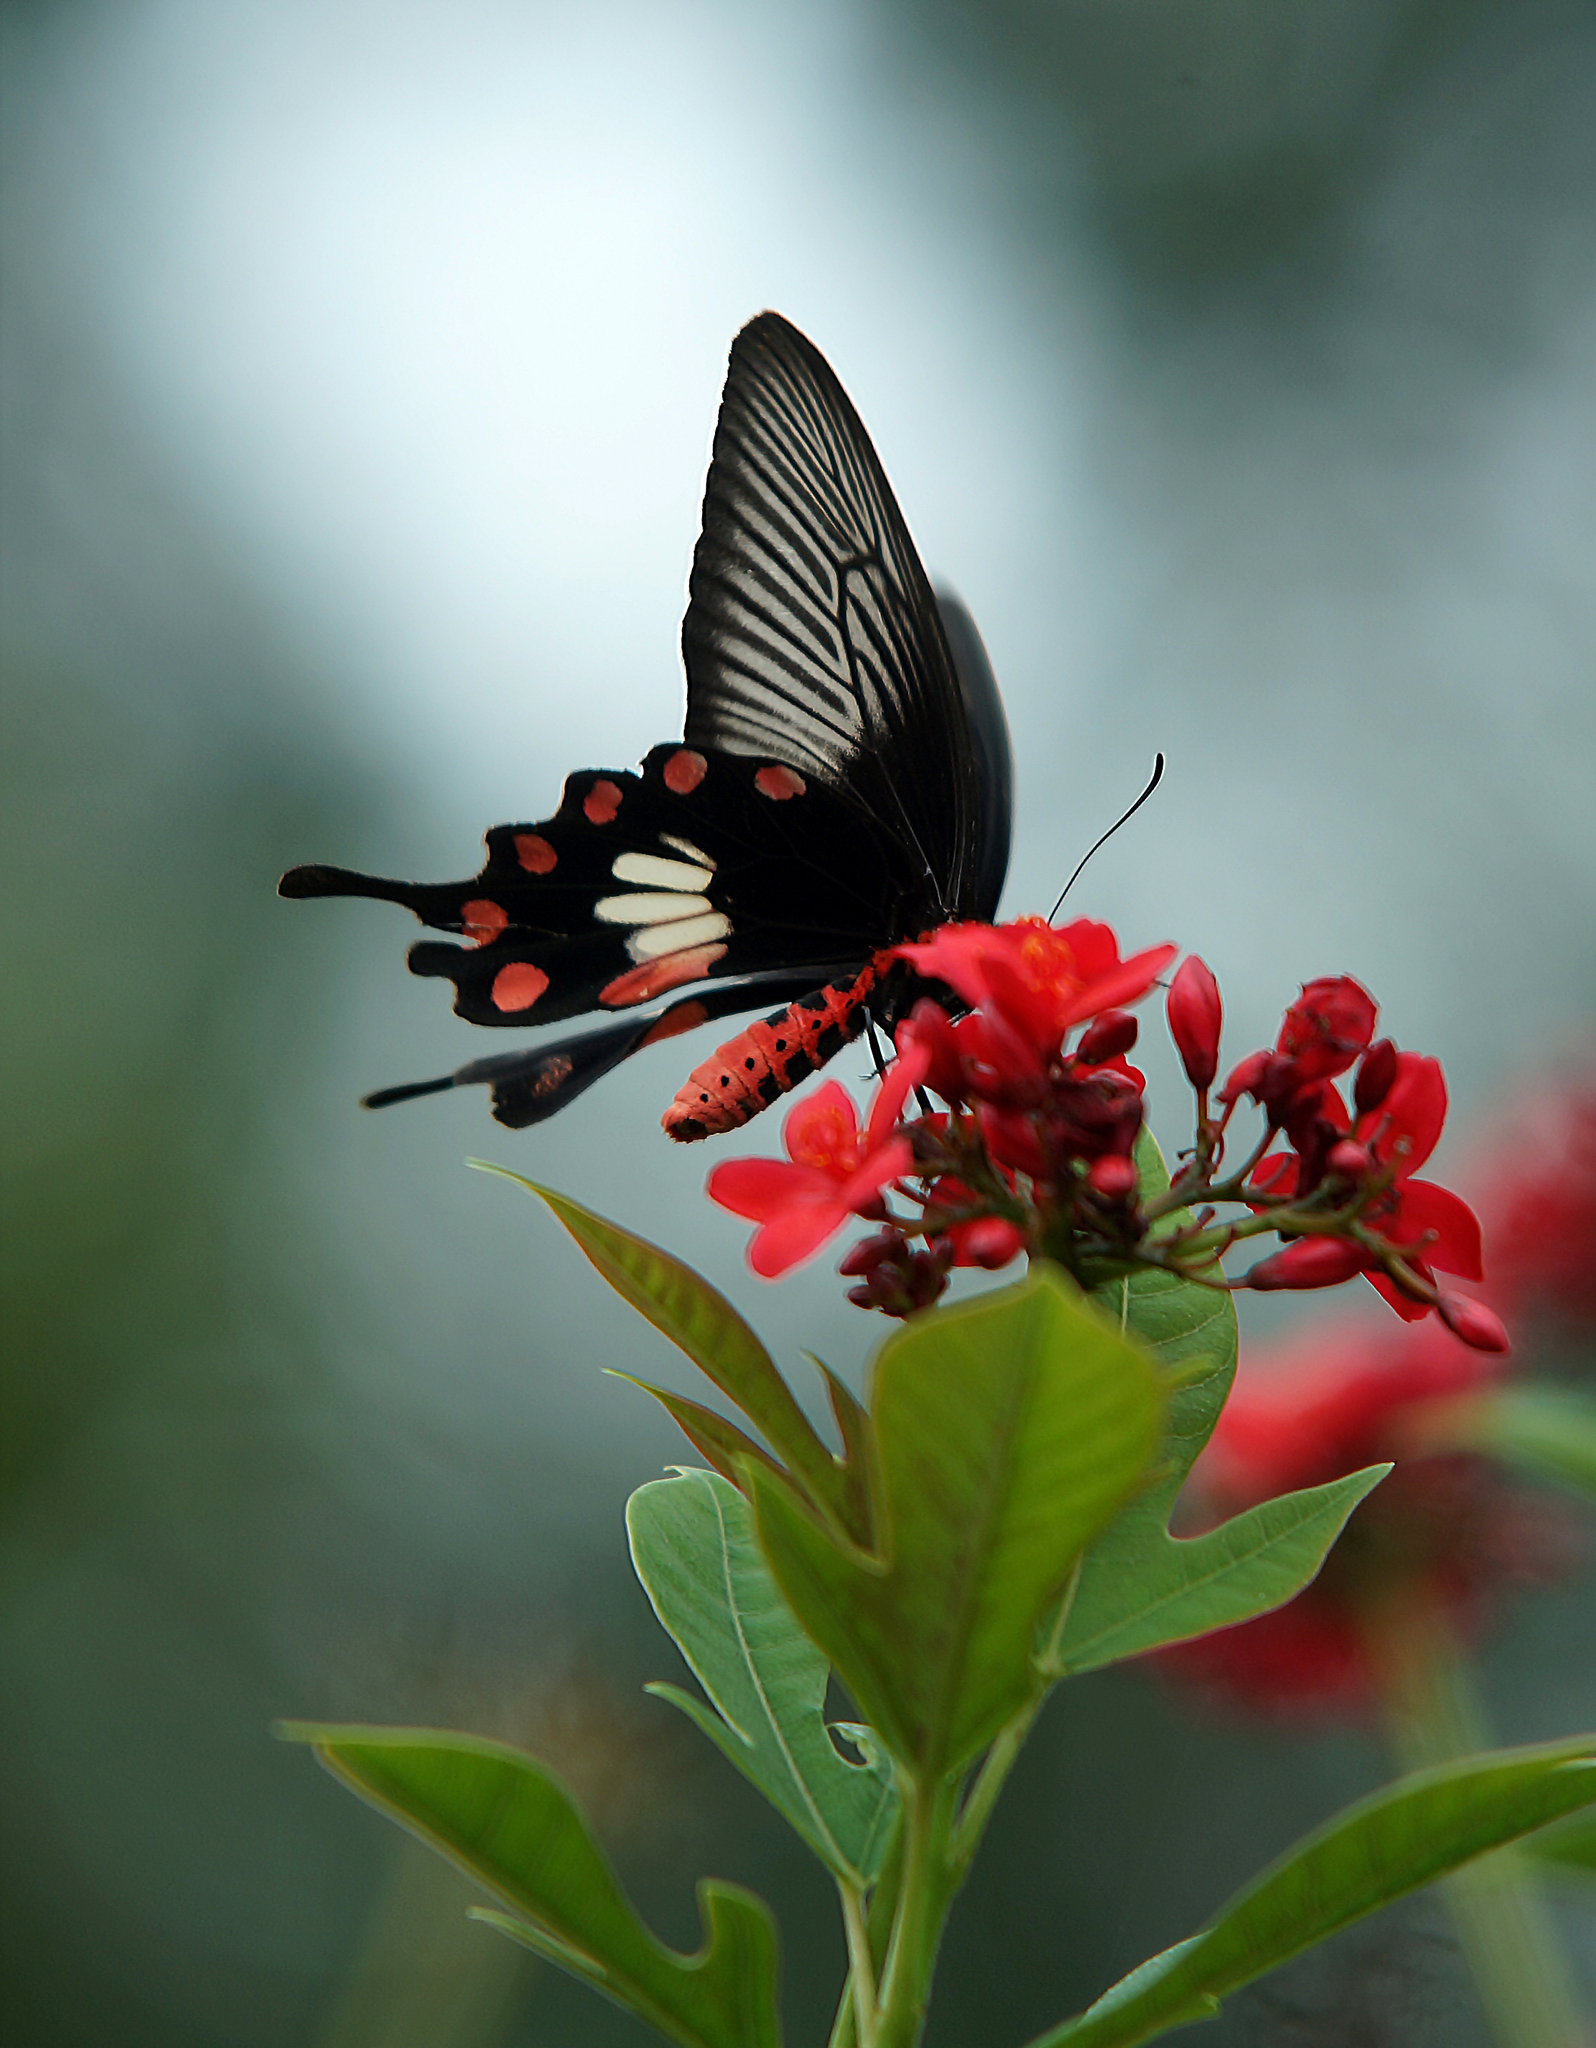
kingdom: Animalia
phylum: Arthropoda
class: Insecta
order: Lepidoptera
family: Papilionidae
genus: Pachliopta
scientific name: Pachliopta aristolochiae
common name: Common rose
